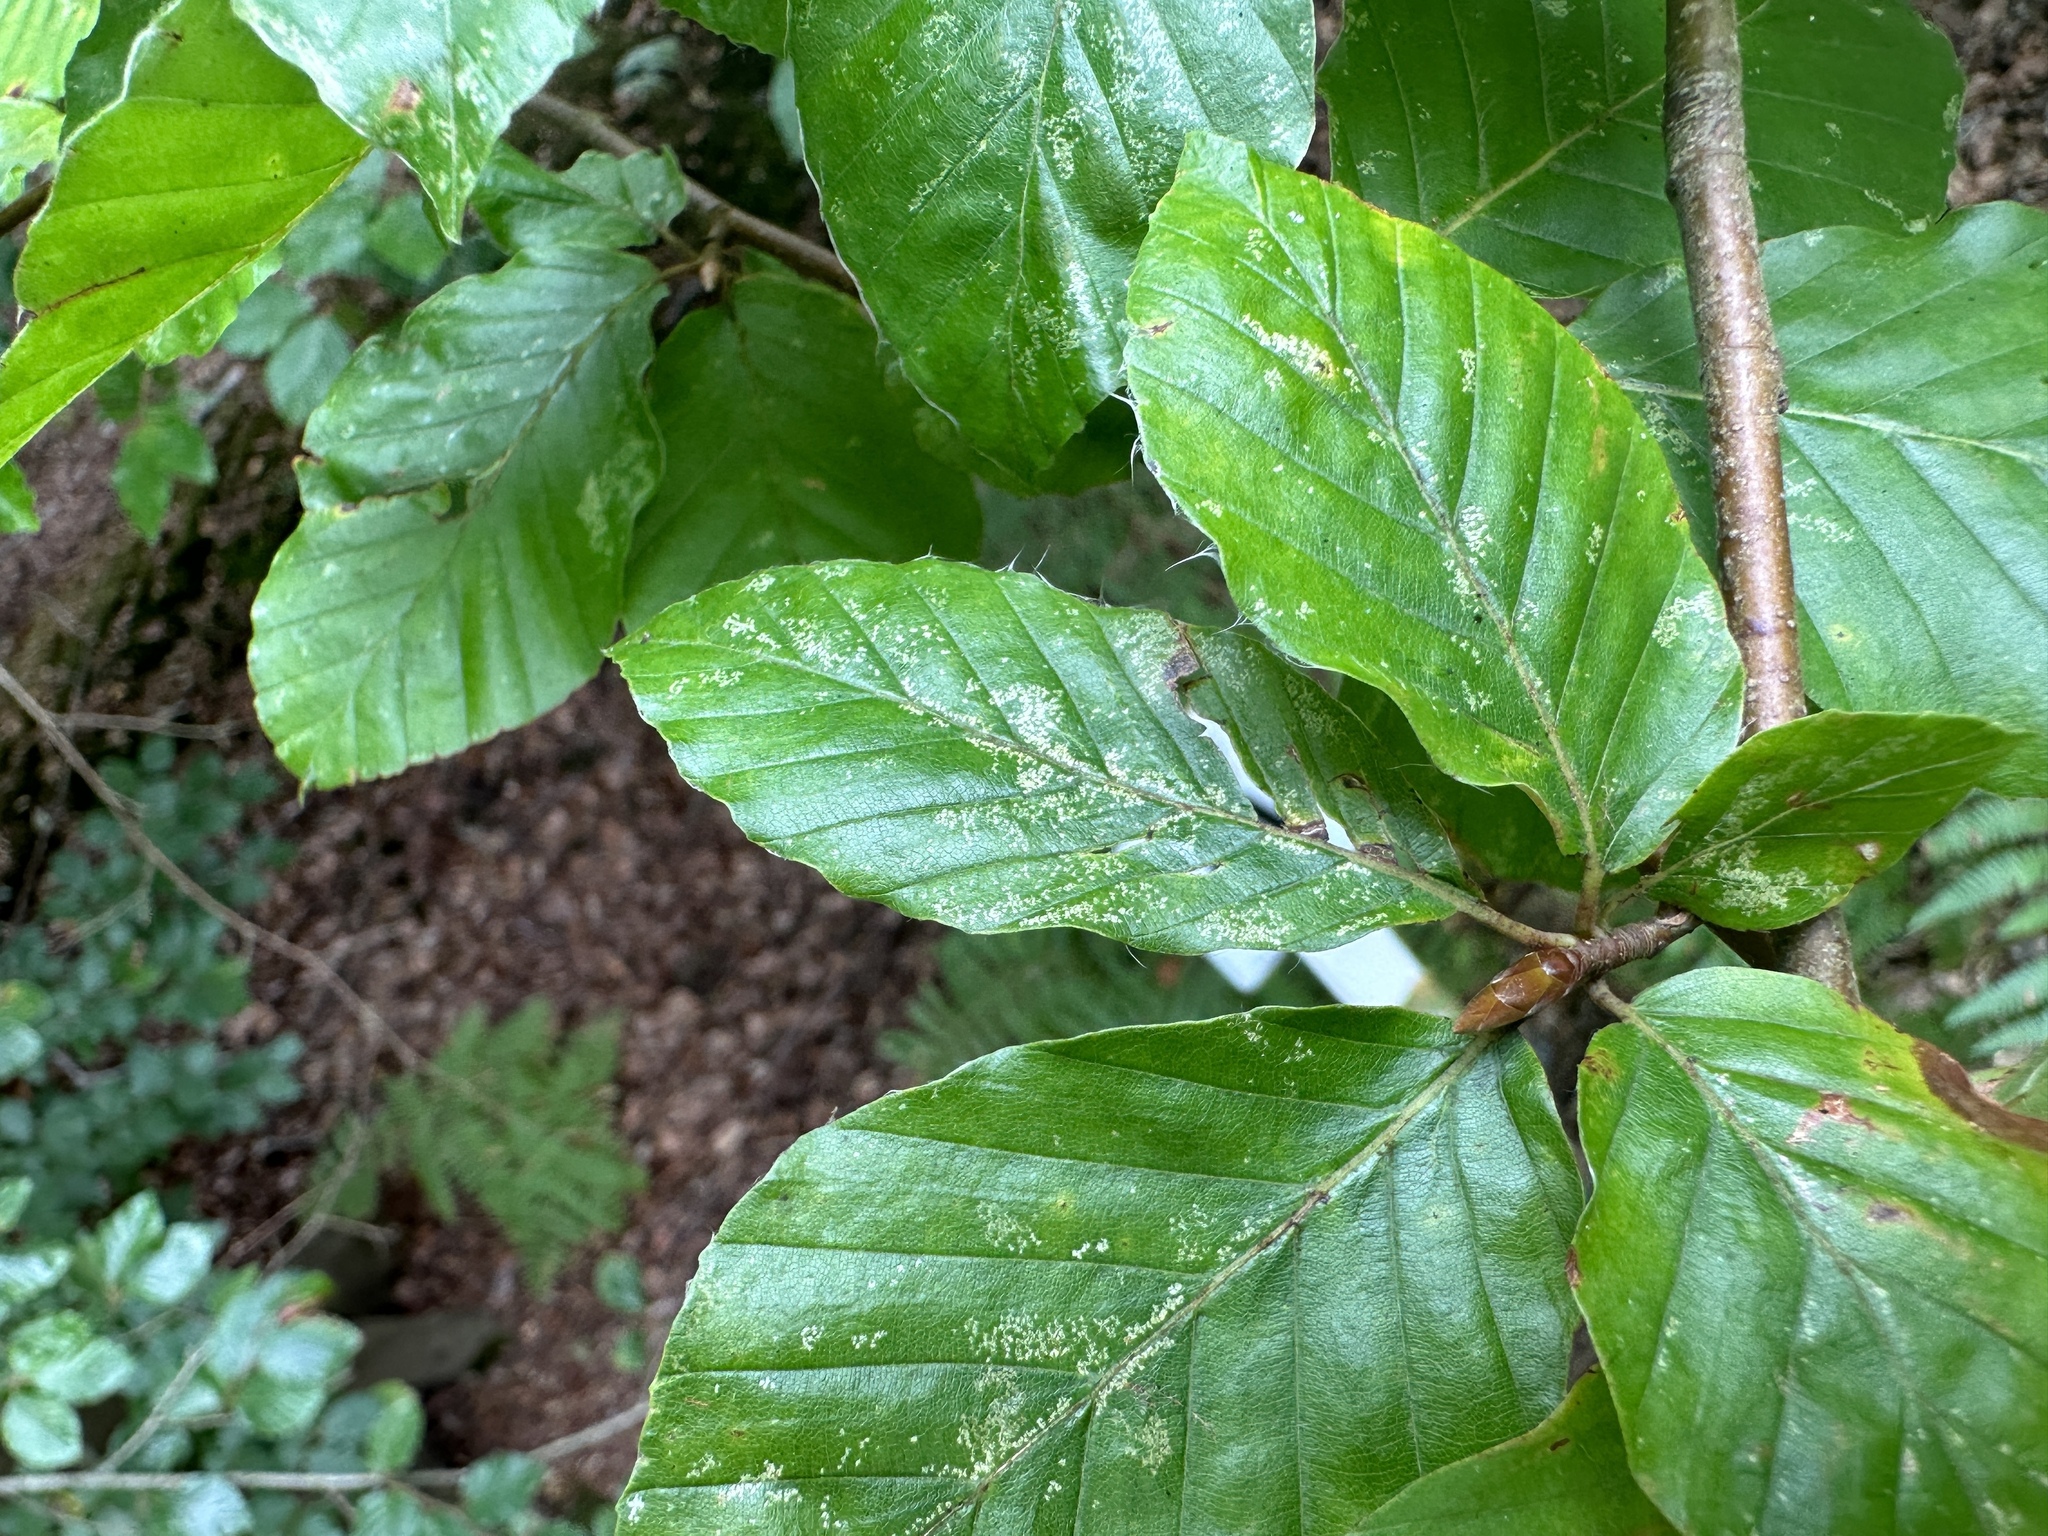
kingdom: Plantae
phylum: Tracheophyta
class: Magnoliopsida
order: Fagales
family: Fagaceae
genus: Fagus
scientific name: Fagus sylvatica
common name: Beech
